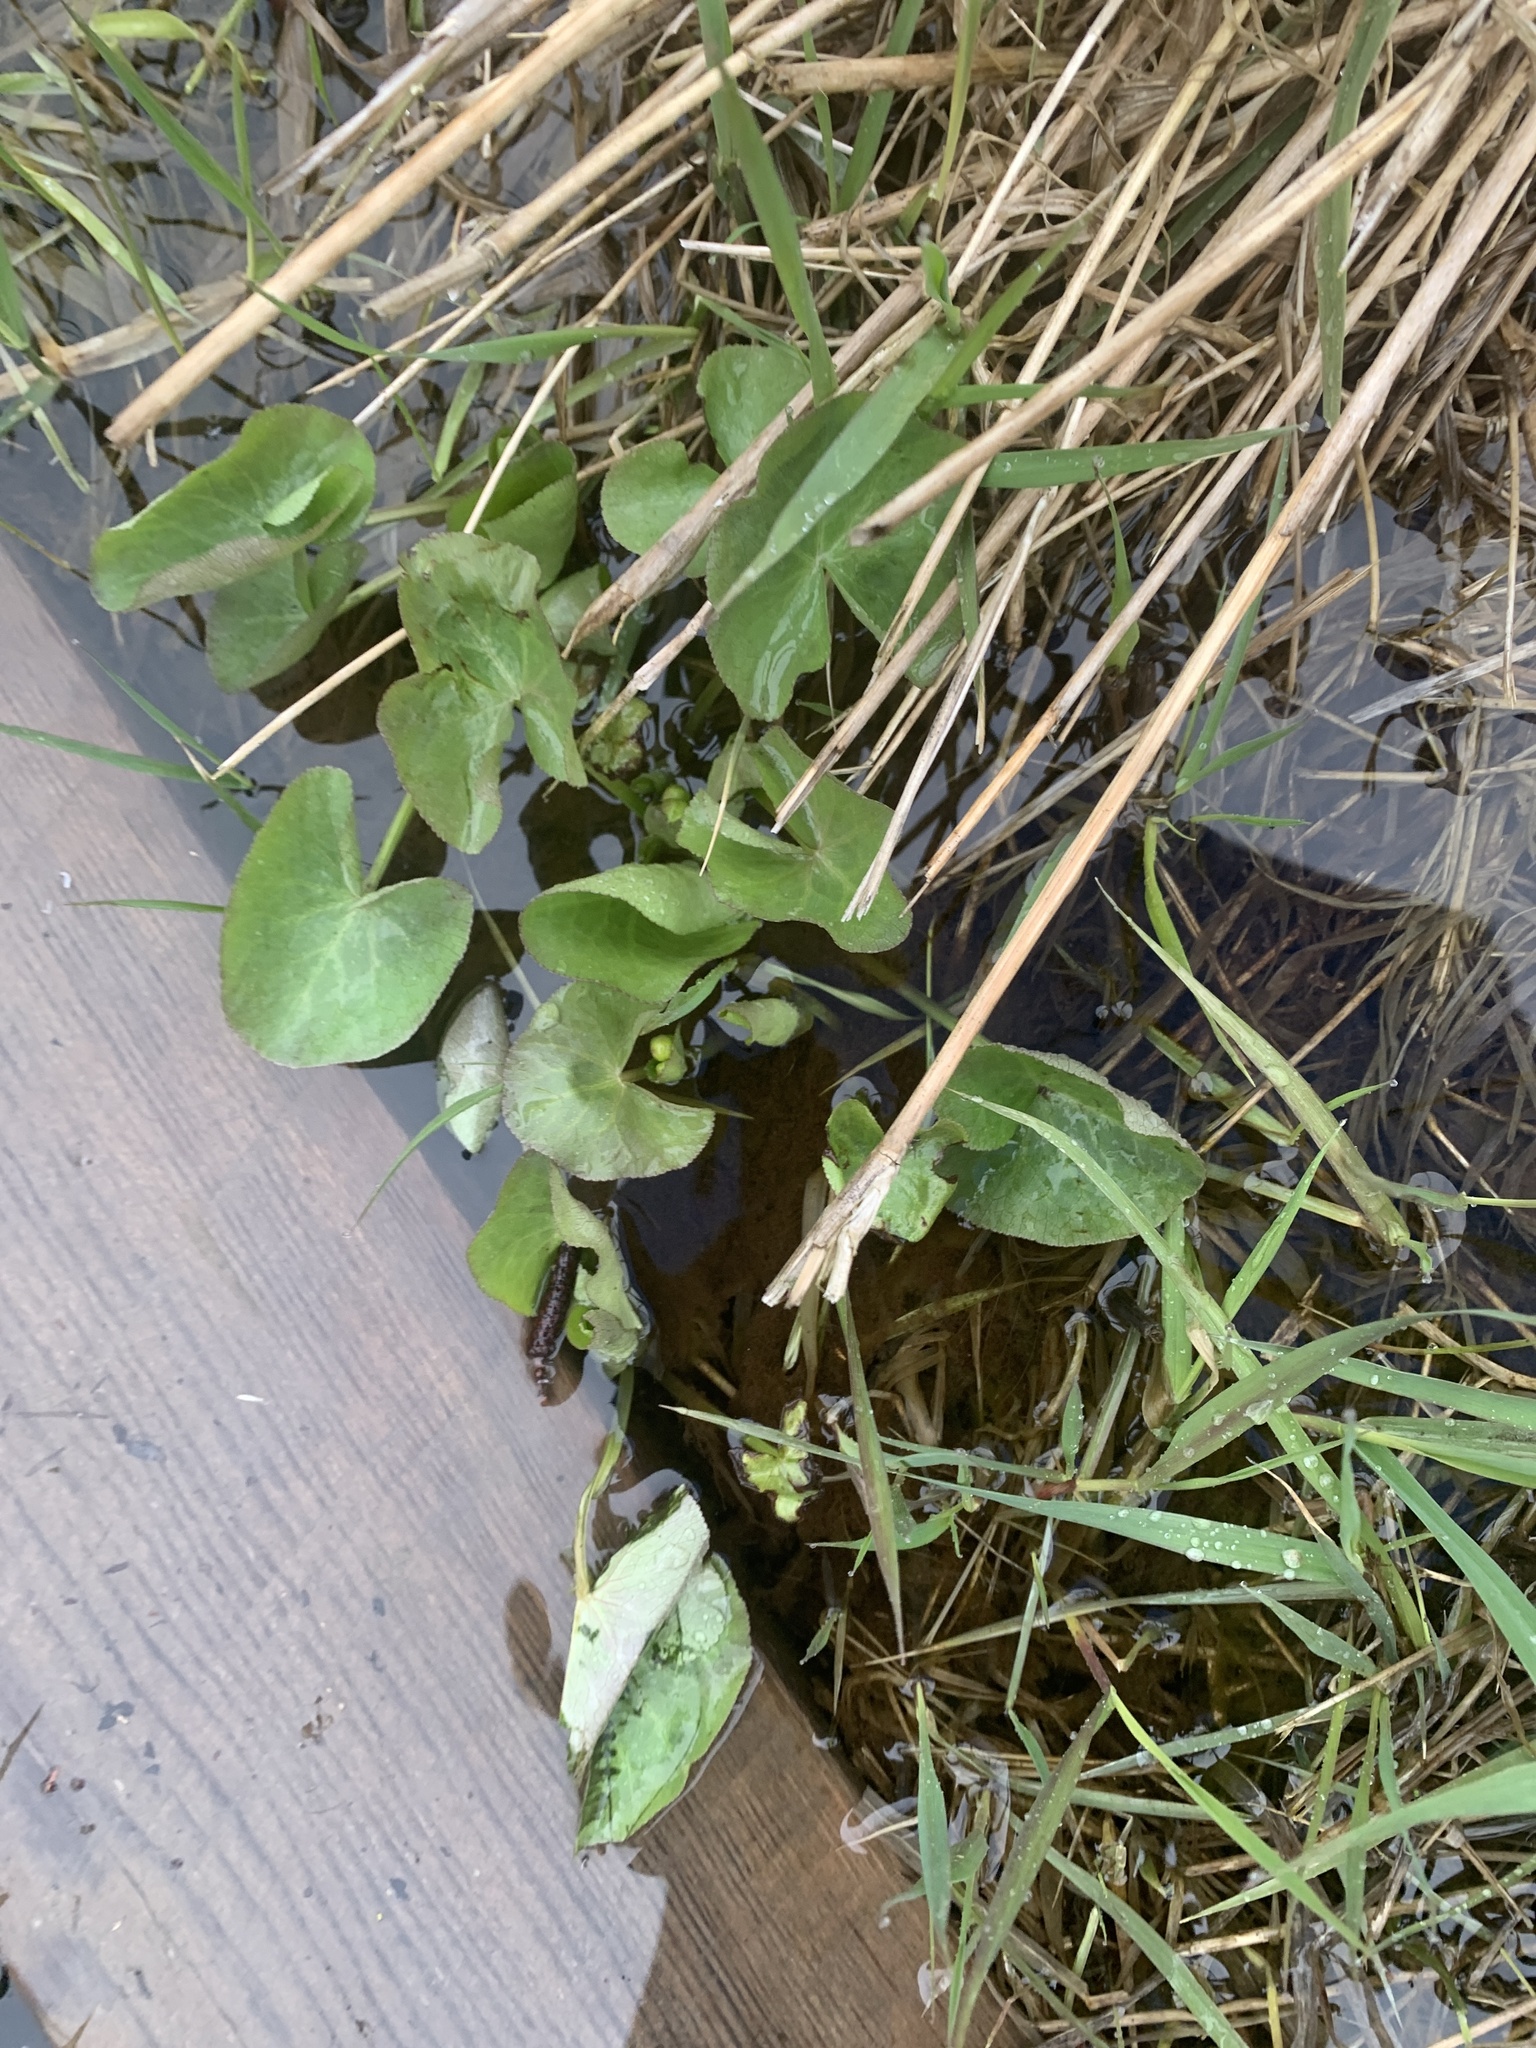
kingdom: Plantae
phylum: Tracheophyta
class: Magnoliopsida
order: Ranunculales
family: Ranunculaceae
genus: Caltha
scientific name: Caltha palustris
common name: Marsh marigold
